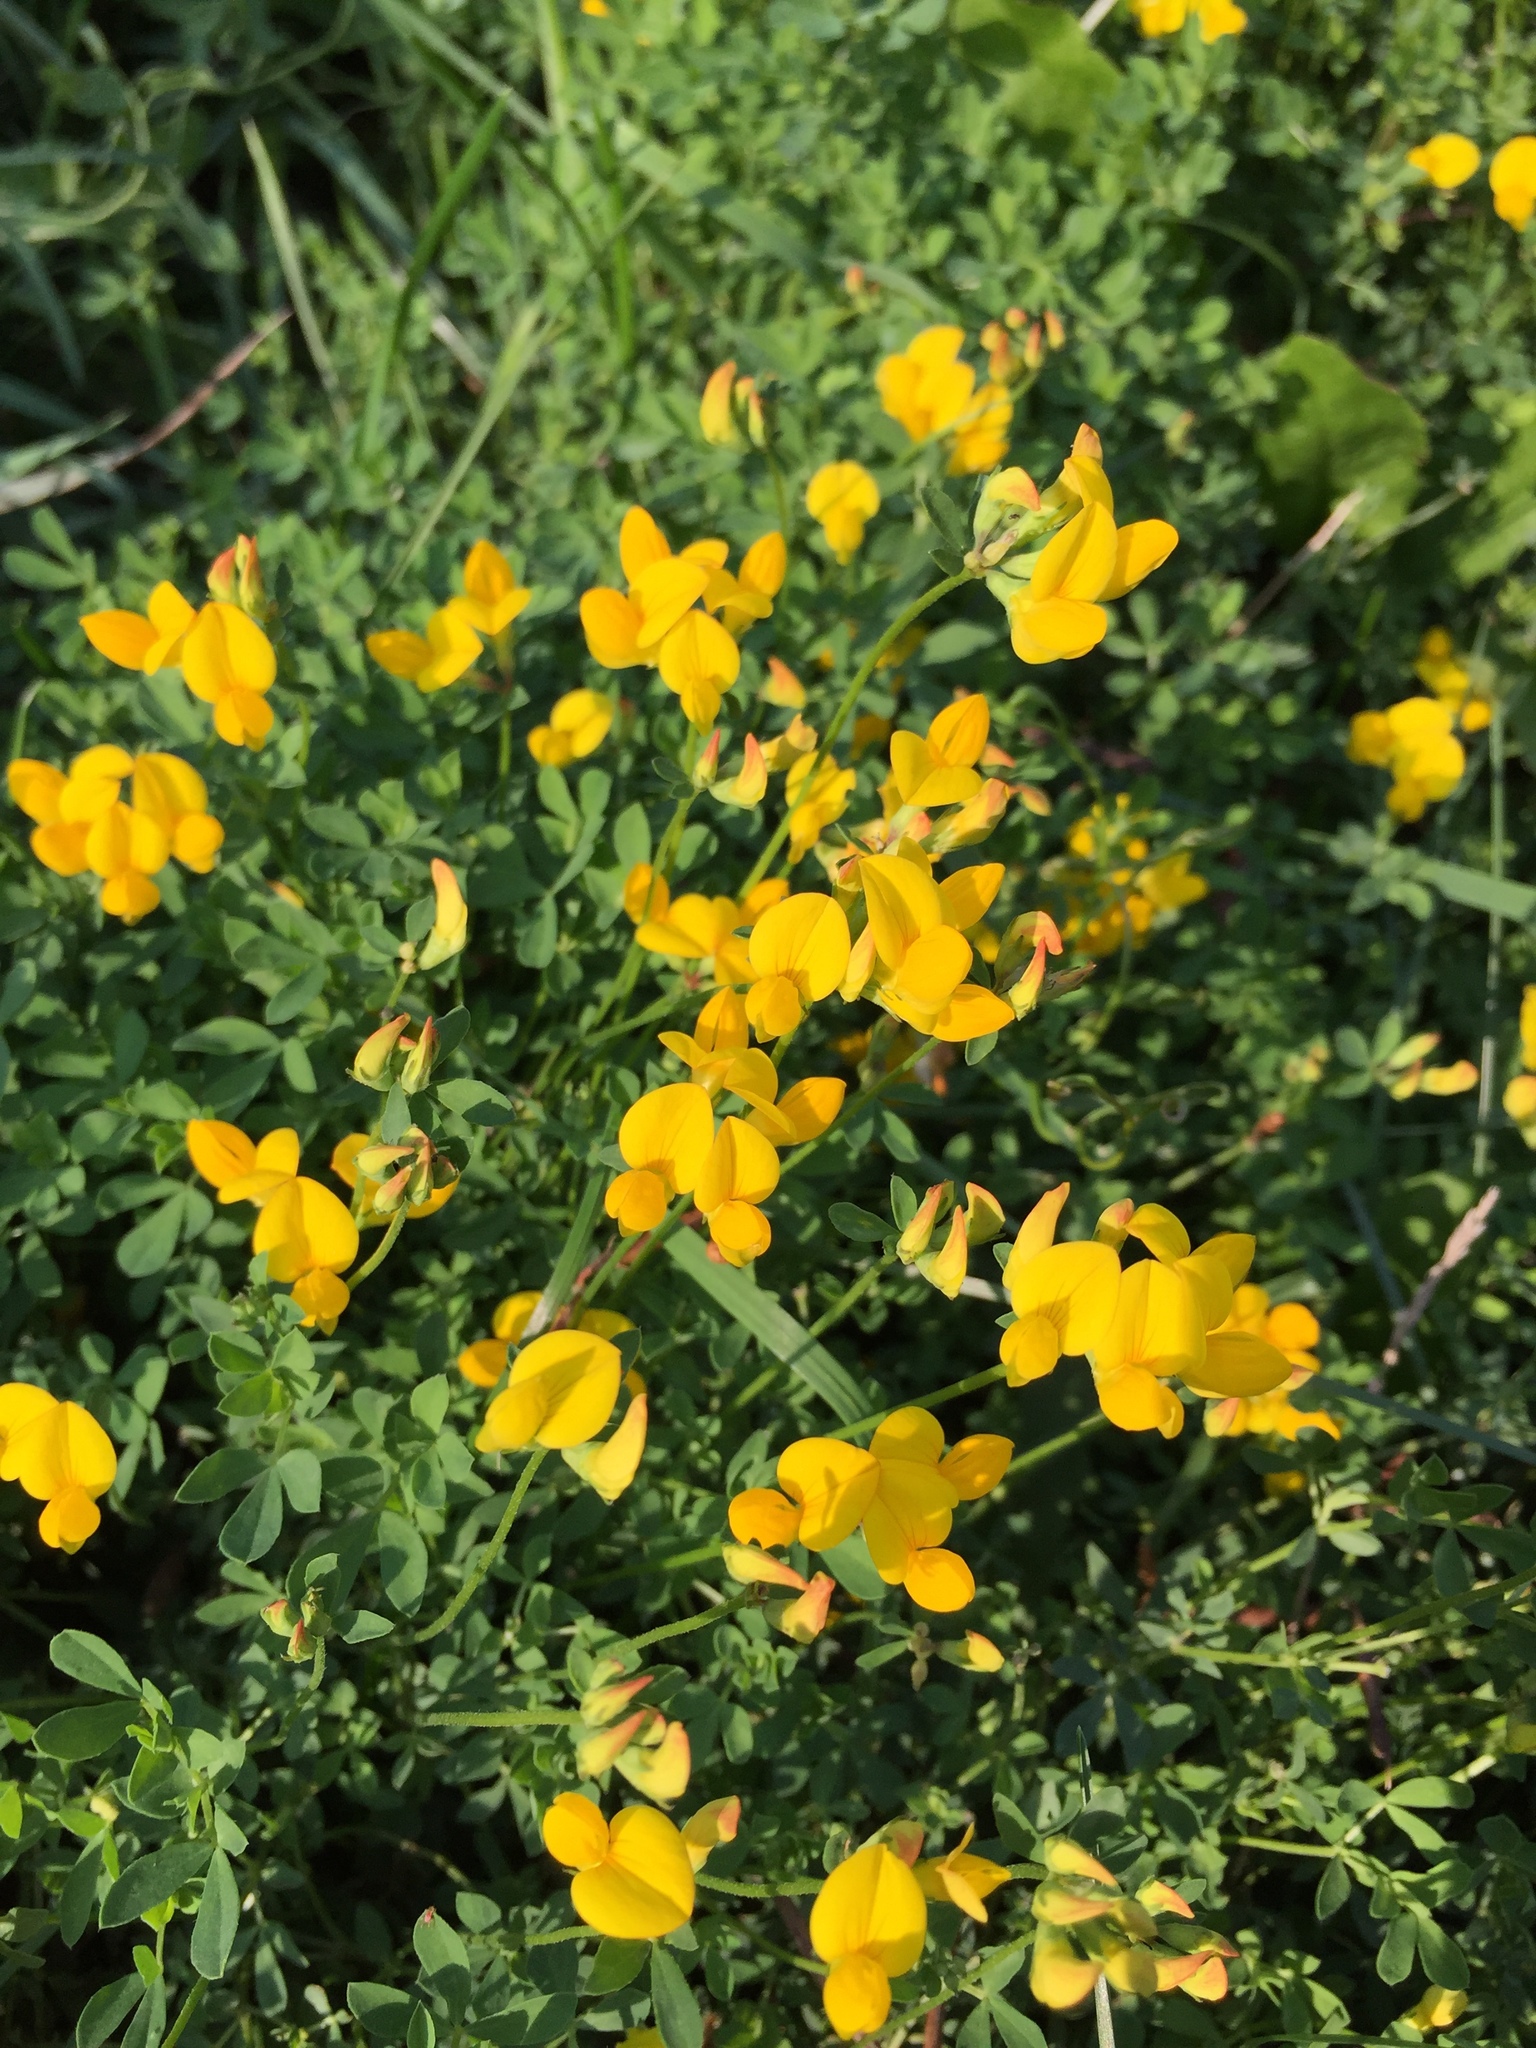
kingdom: Plantae
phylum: Tracheophyta
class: Magnoliopsida
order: Fabales
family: Fabaceae
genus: Lotus
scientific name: Lotus corniculatus
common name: Common bird's-foot-trefoil
